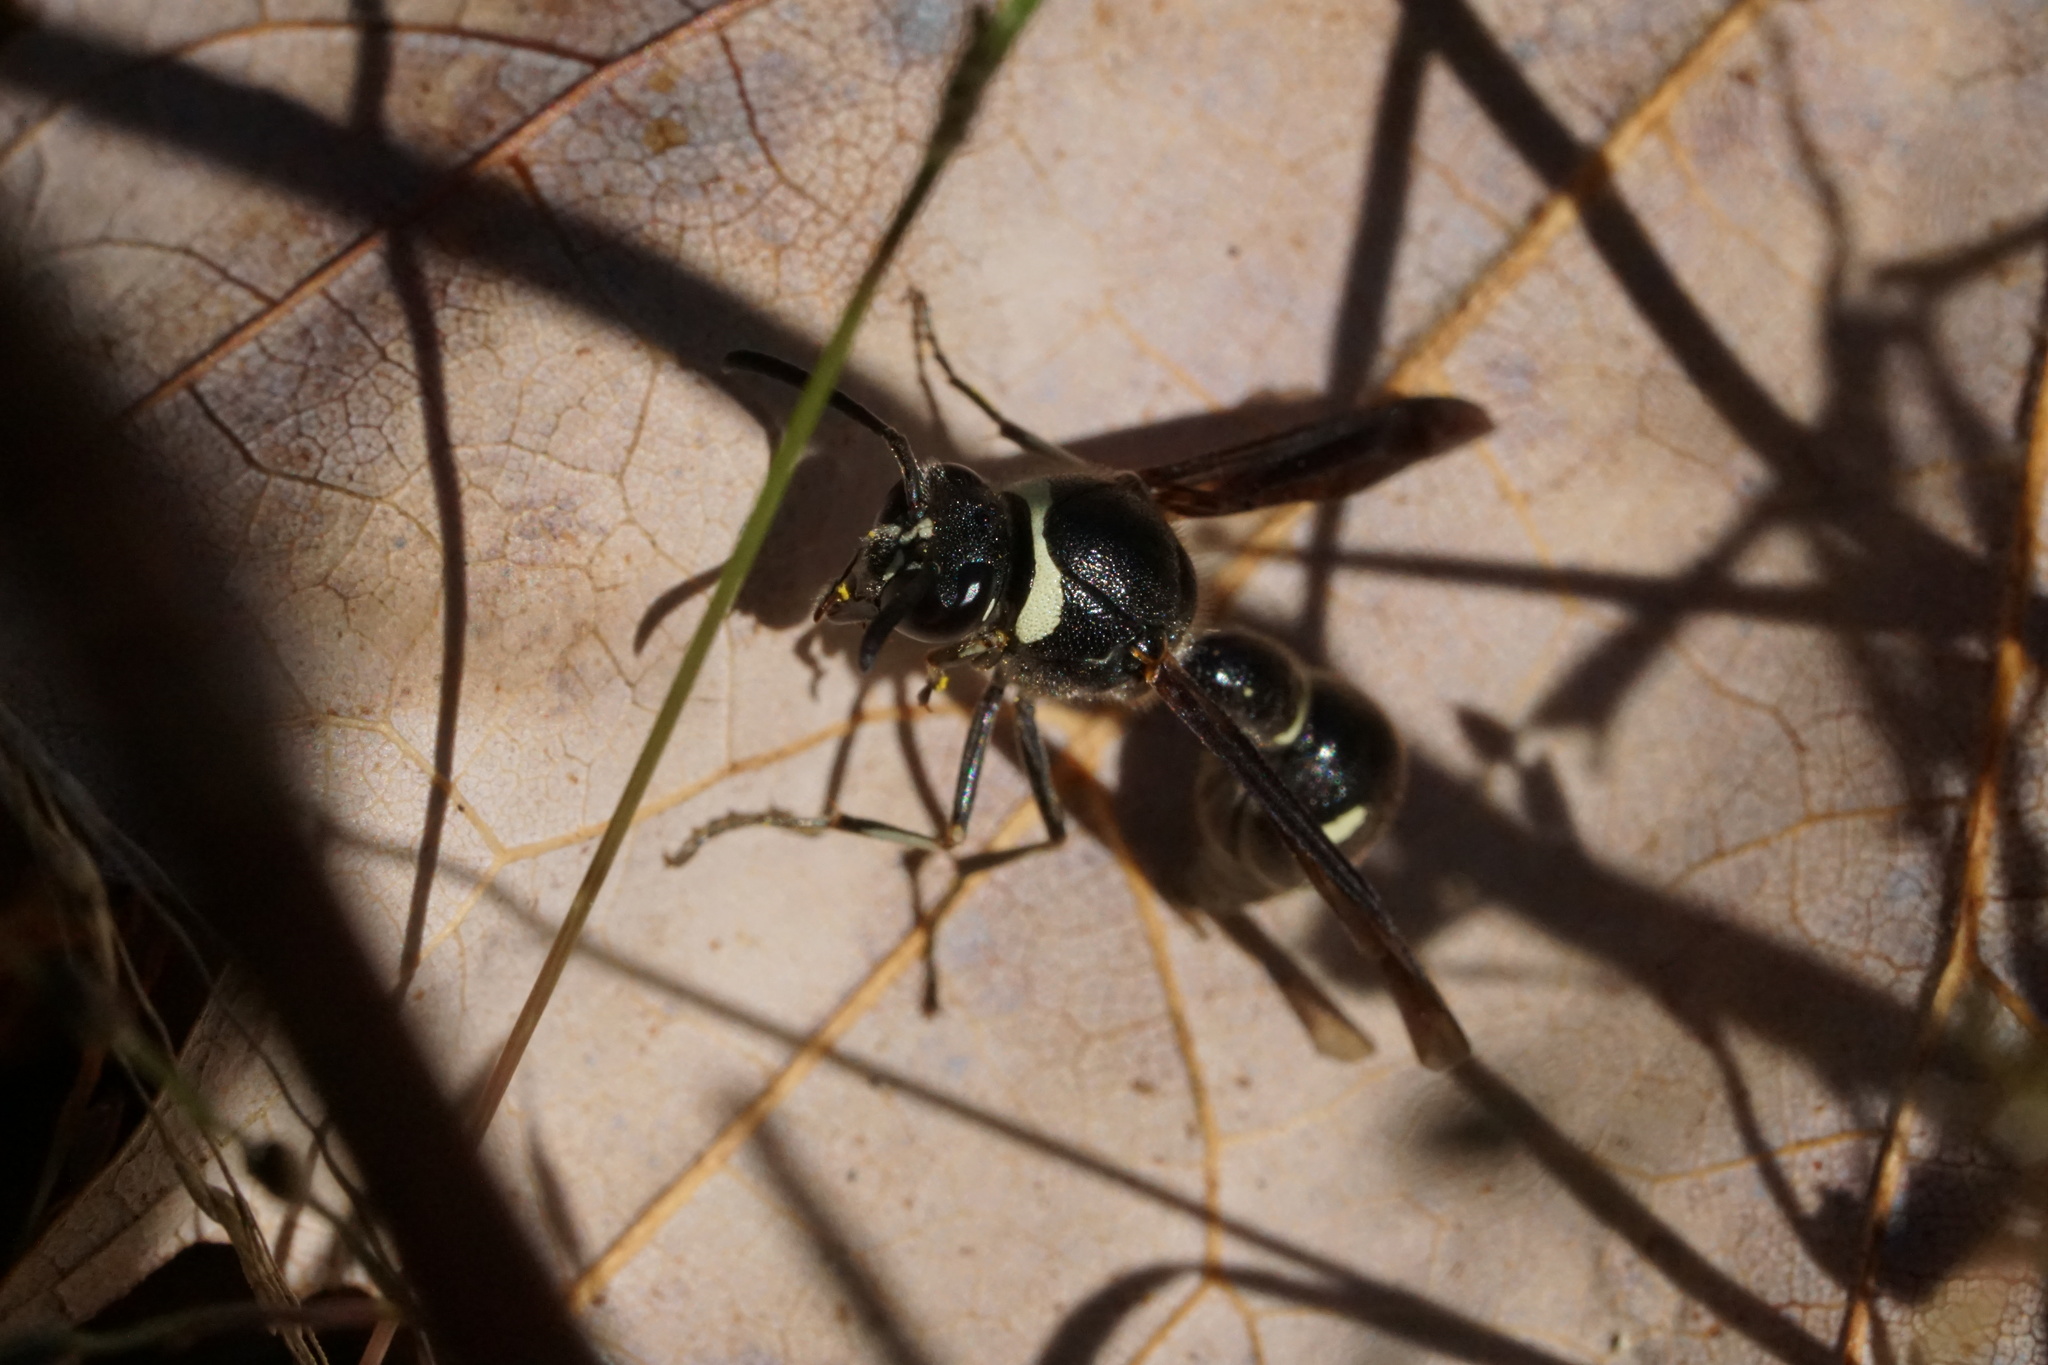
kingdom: Animalia
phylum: Arthropoda
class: Insecta
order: Hymenoptera
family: Vespidae
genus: Eumenes
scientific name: Eumenes fraternus
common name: Fraternal potter wasp
